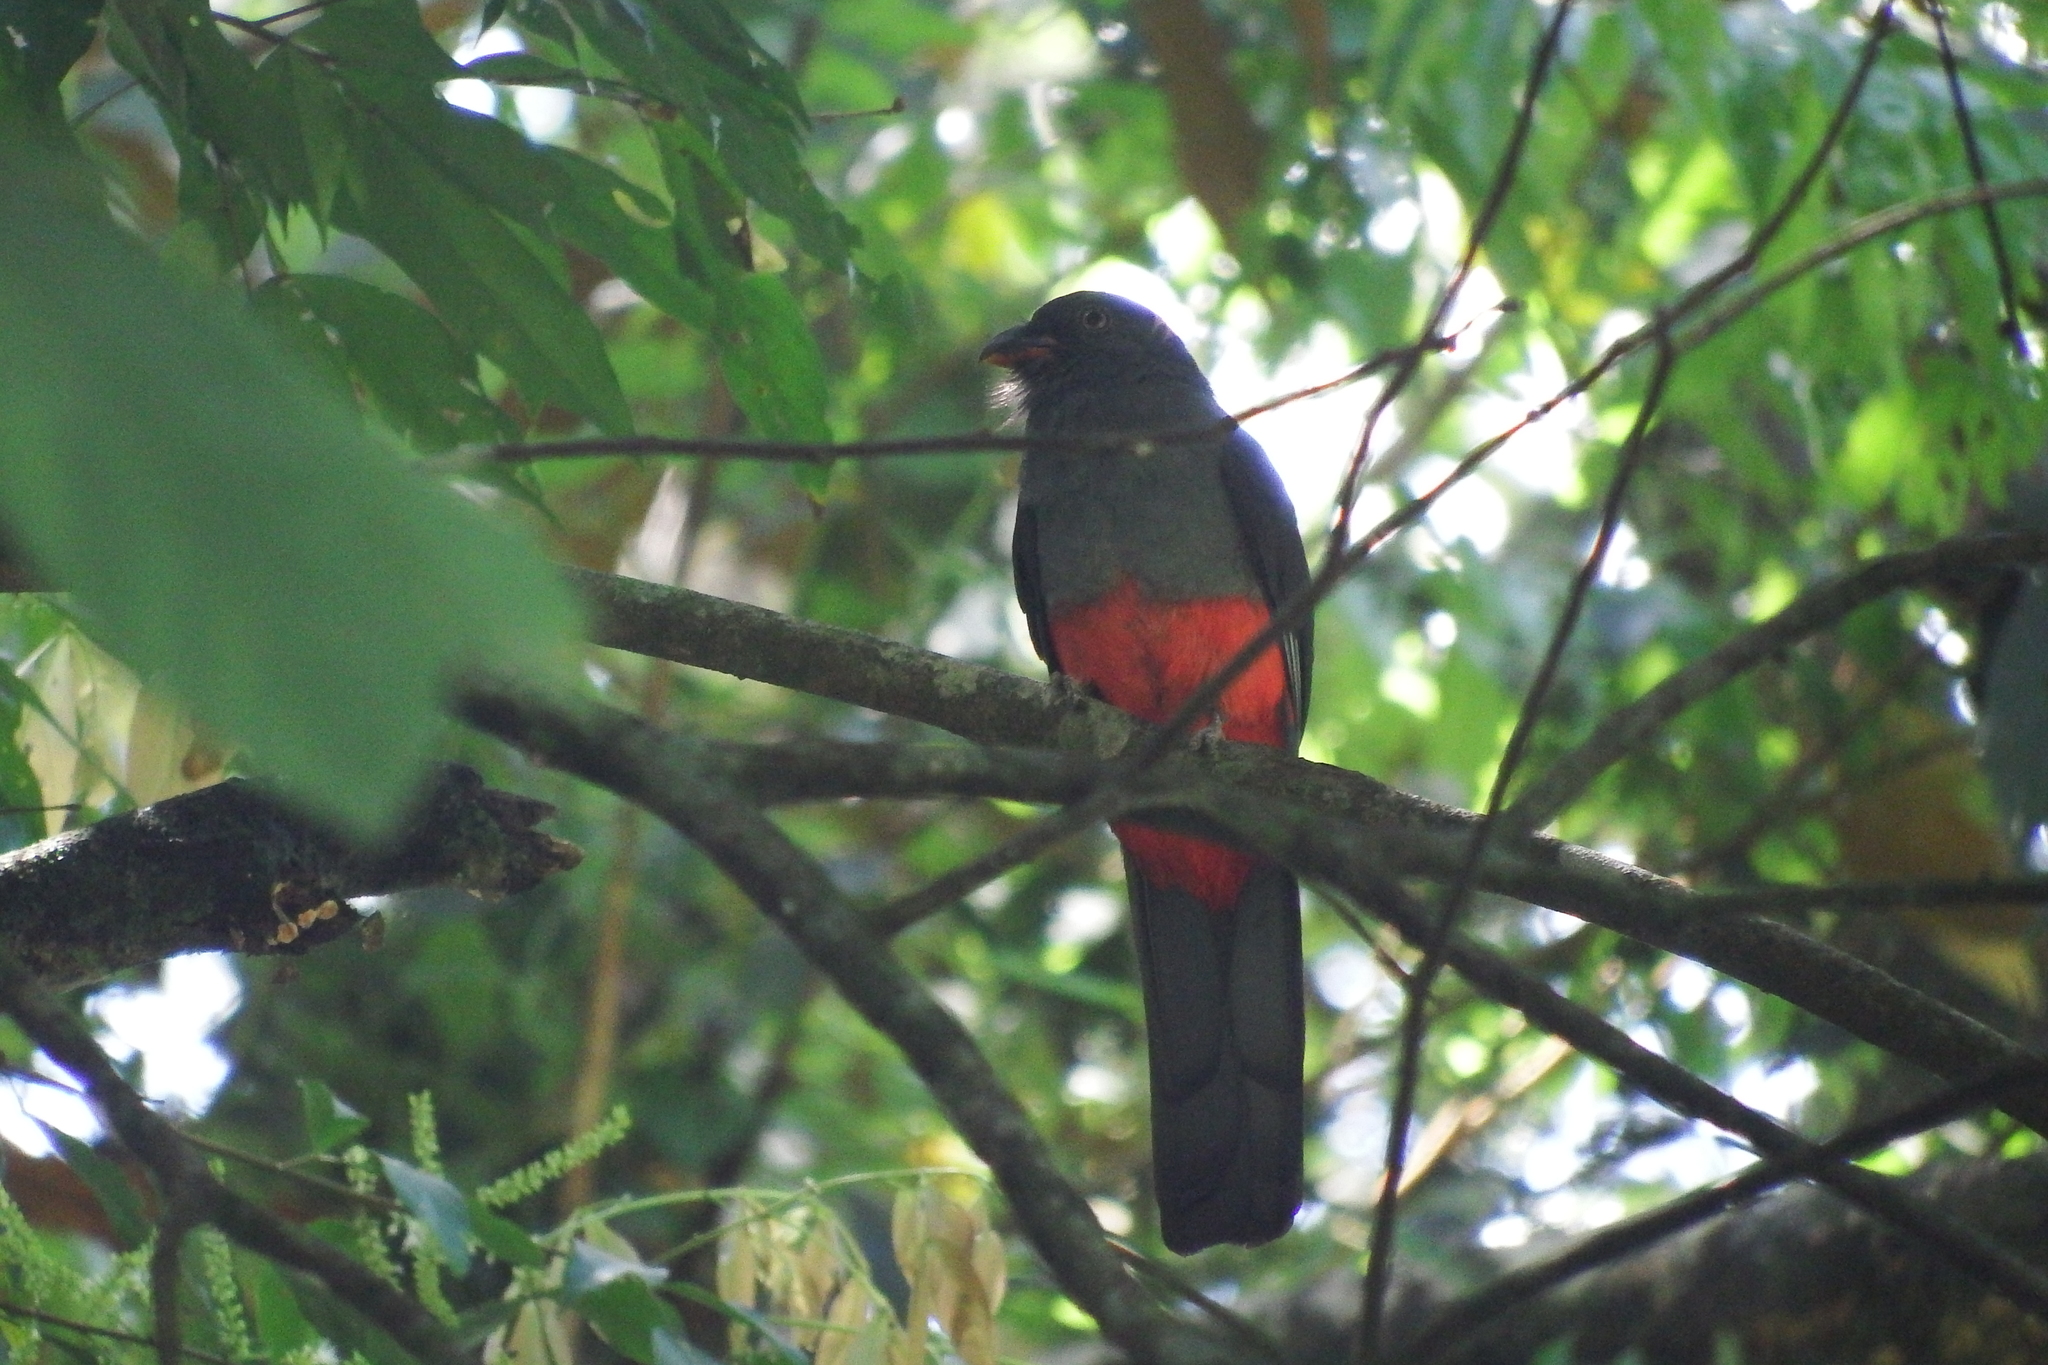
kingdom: Animalia
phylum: Chordata
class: Aves
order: Trogoniformes
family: Trogonidae
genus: Trogon
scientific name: Trogon massena
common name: Slaty-tailed trogon
